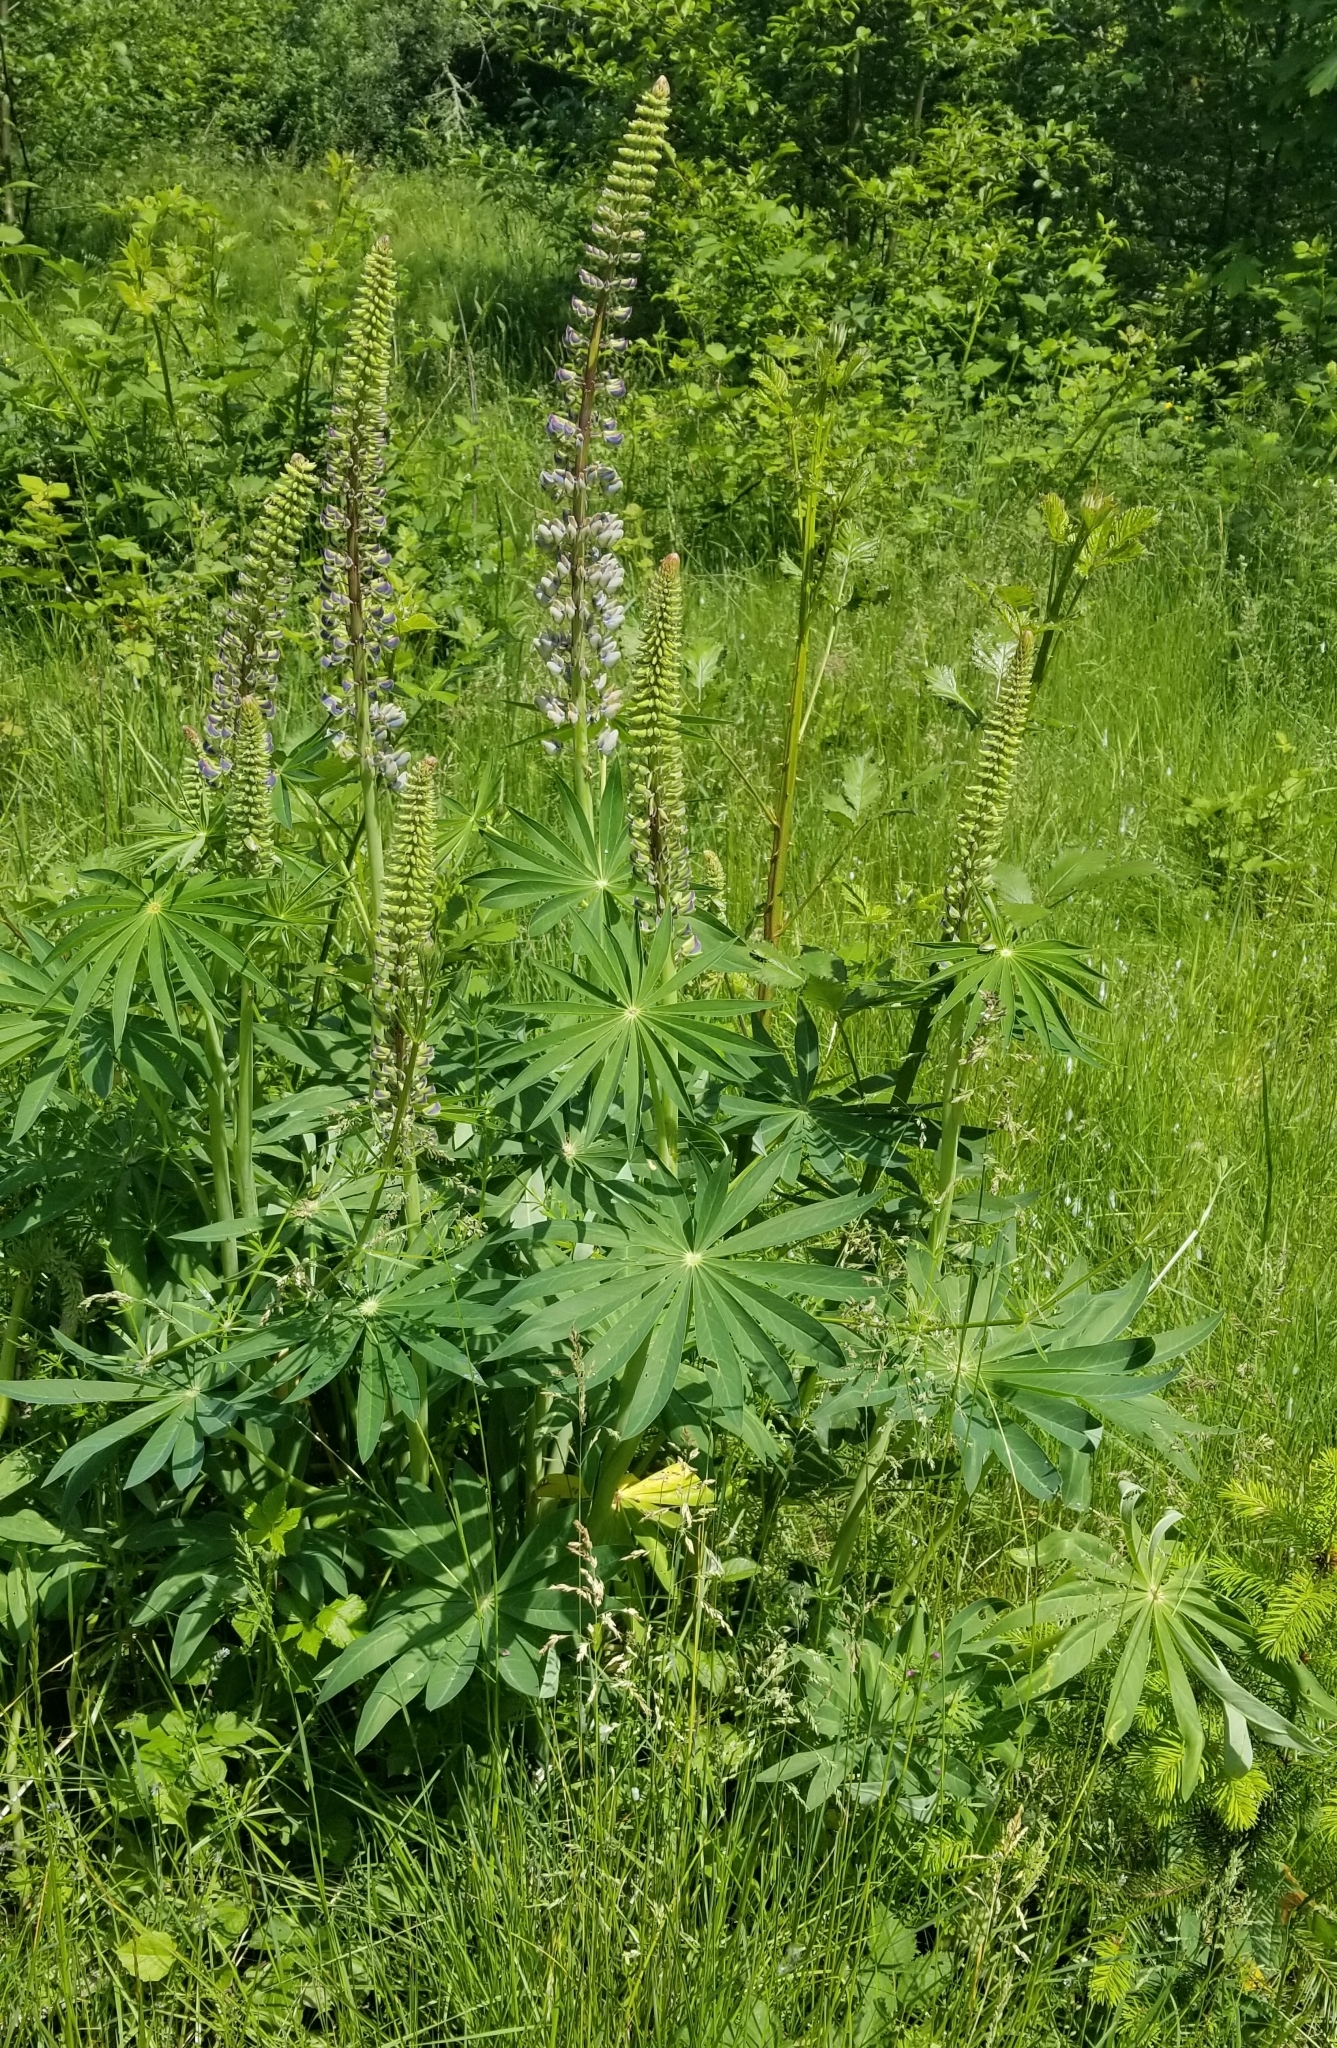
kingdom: Plantae
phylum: Tracheophyta
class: Magnoliopsida
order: Fabales
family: Fabaceae
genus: Lupinus
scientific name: Lupinus polyphyllus
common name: Garden lupin
